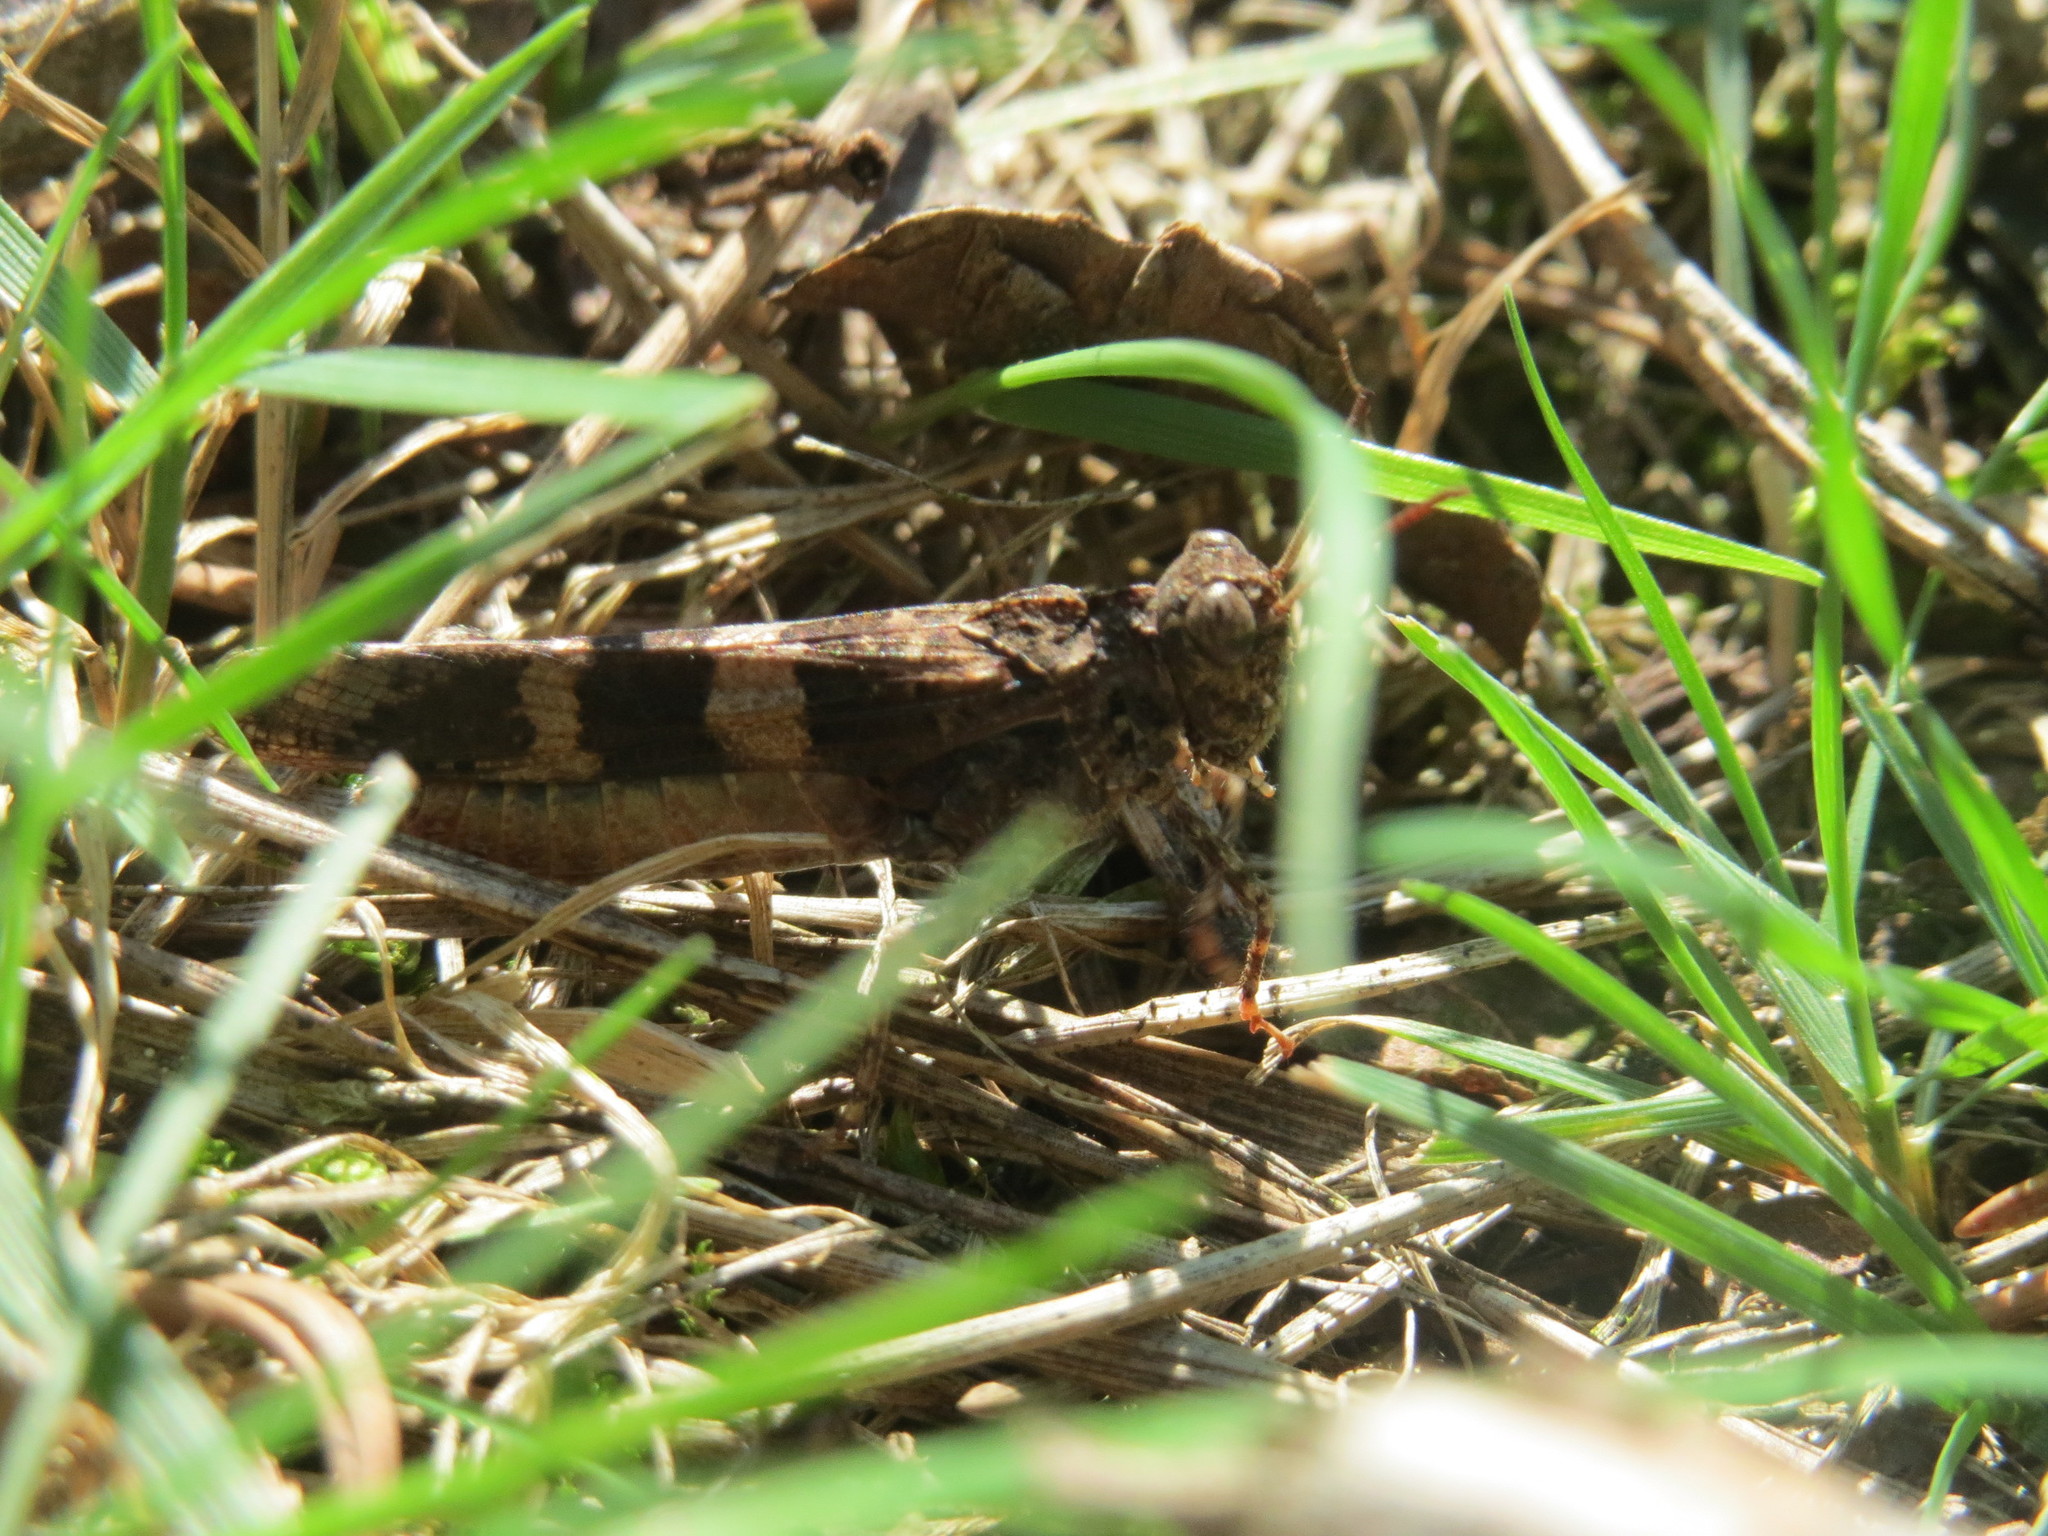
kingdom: Animalia
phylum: Arthropoda
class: Insecta
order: Orthoptera
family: Acrididae
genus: Oedipoda
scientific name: Oedipoda caerulescens
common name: Blue-winged grasshopper
